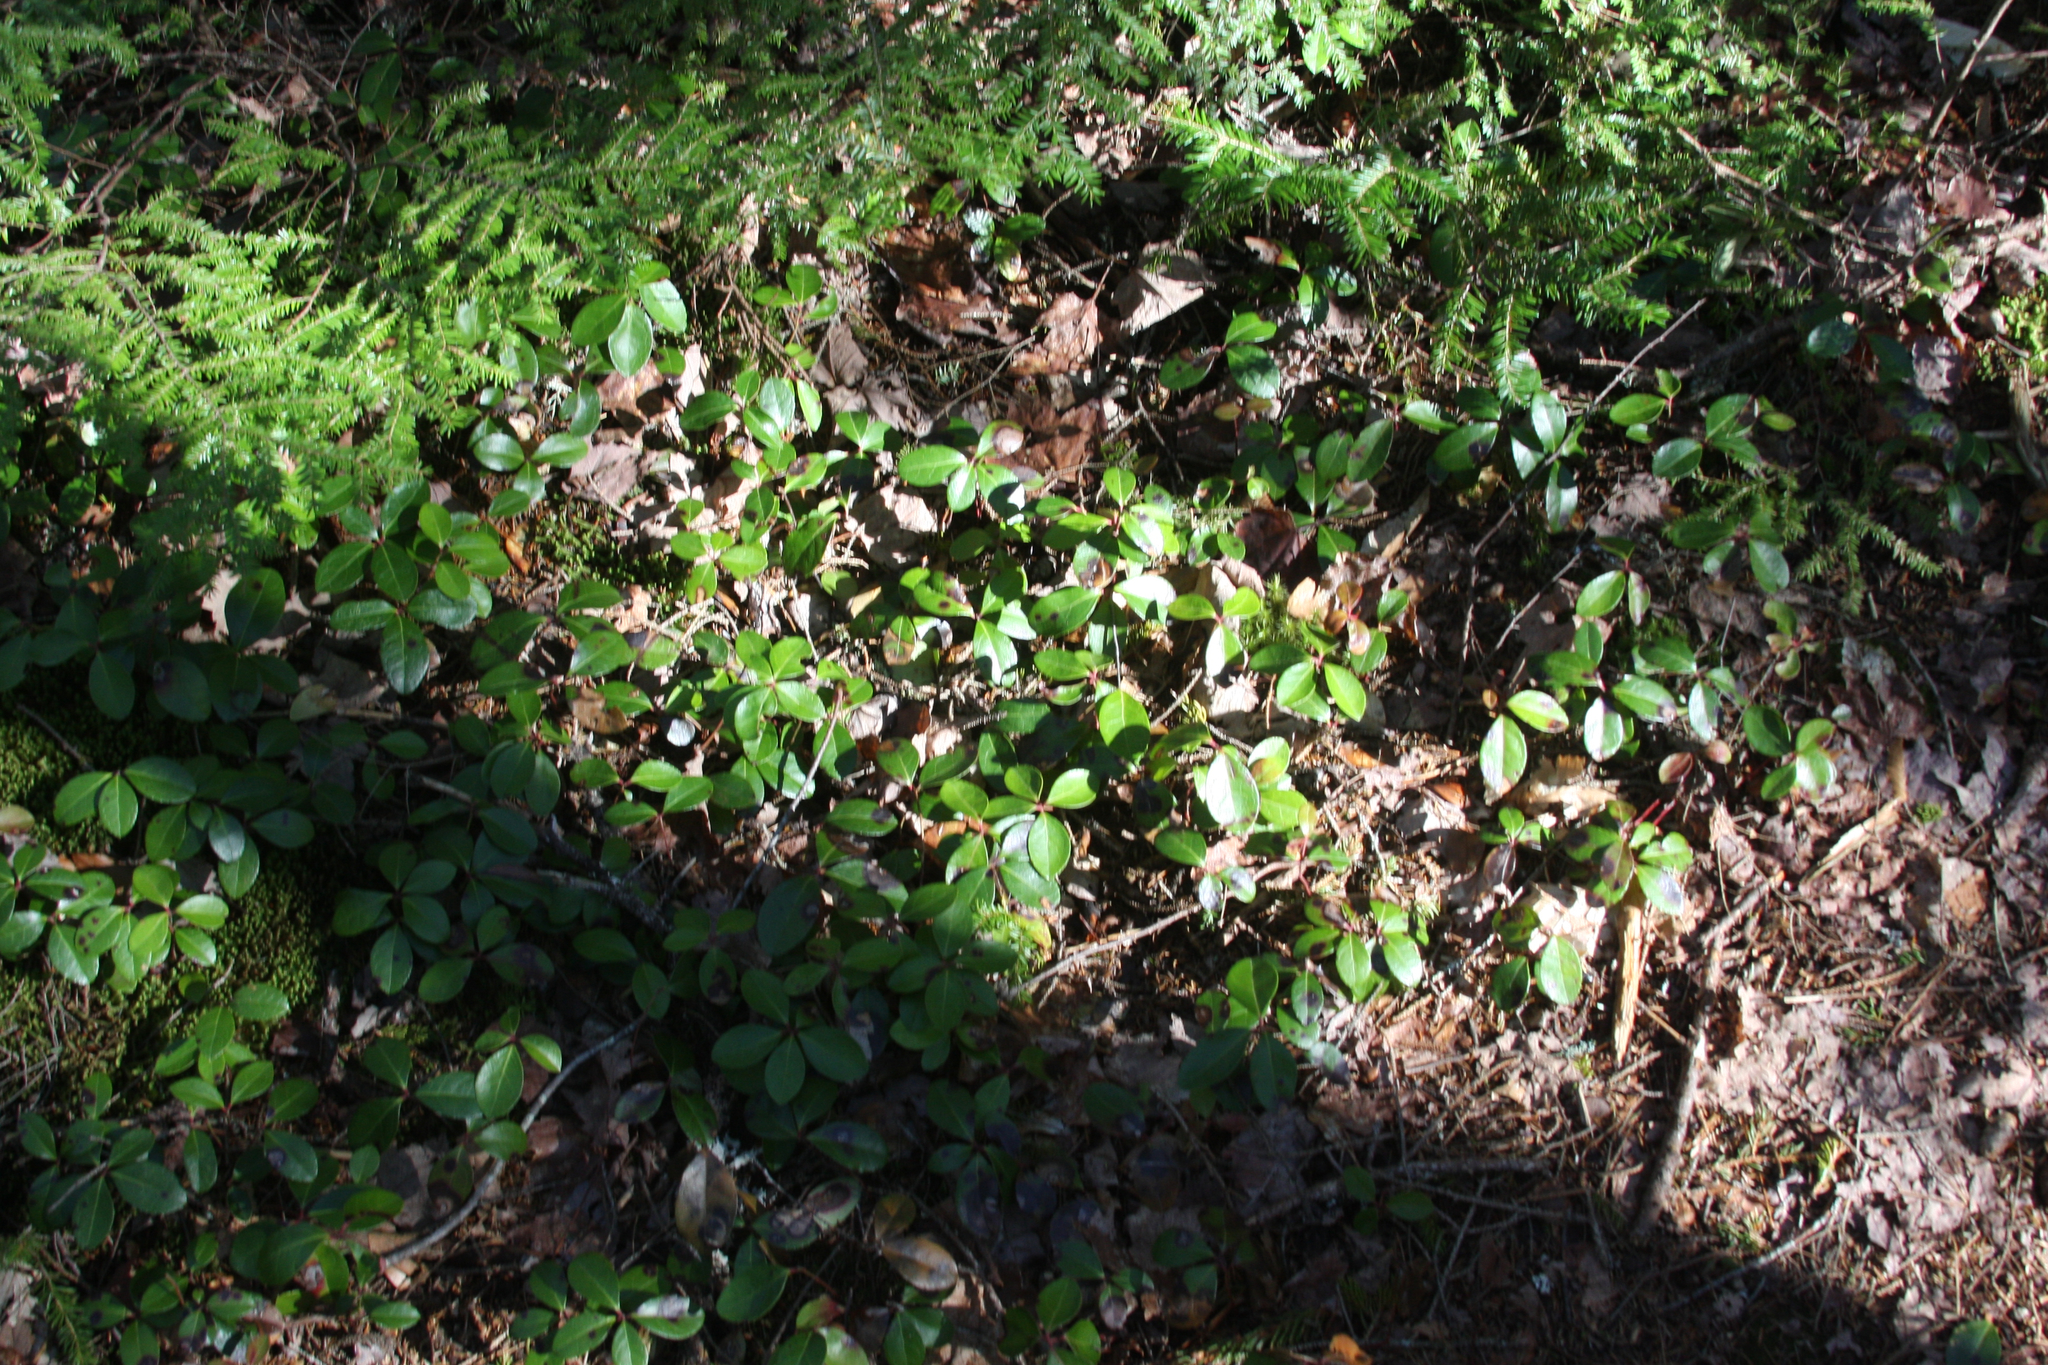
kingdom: Plantae
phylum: Tracheophyta
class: Magnoliopsida
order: Ericales
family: Ericaceae
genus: Gaultheria
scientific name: Gaultheria procumbens
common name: Checkerberry
